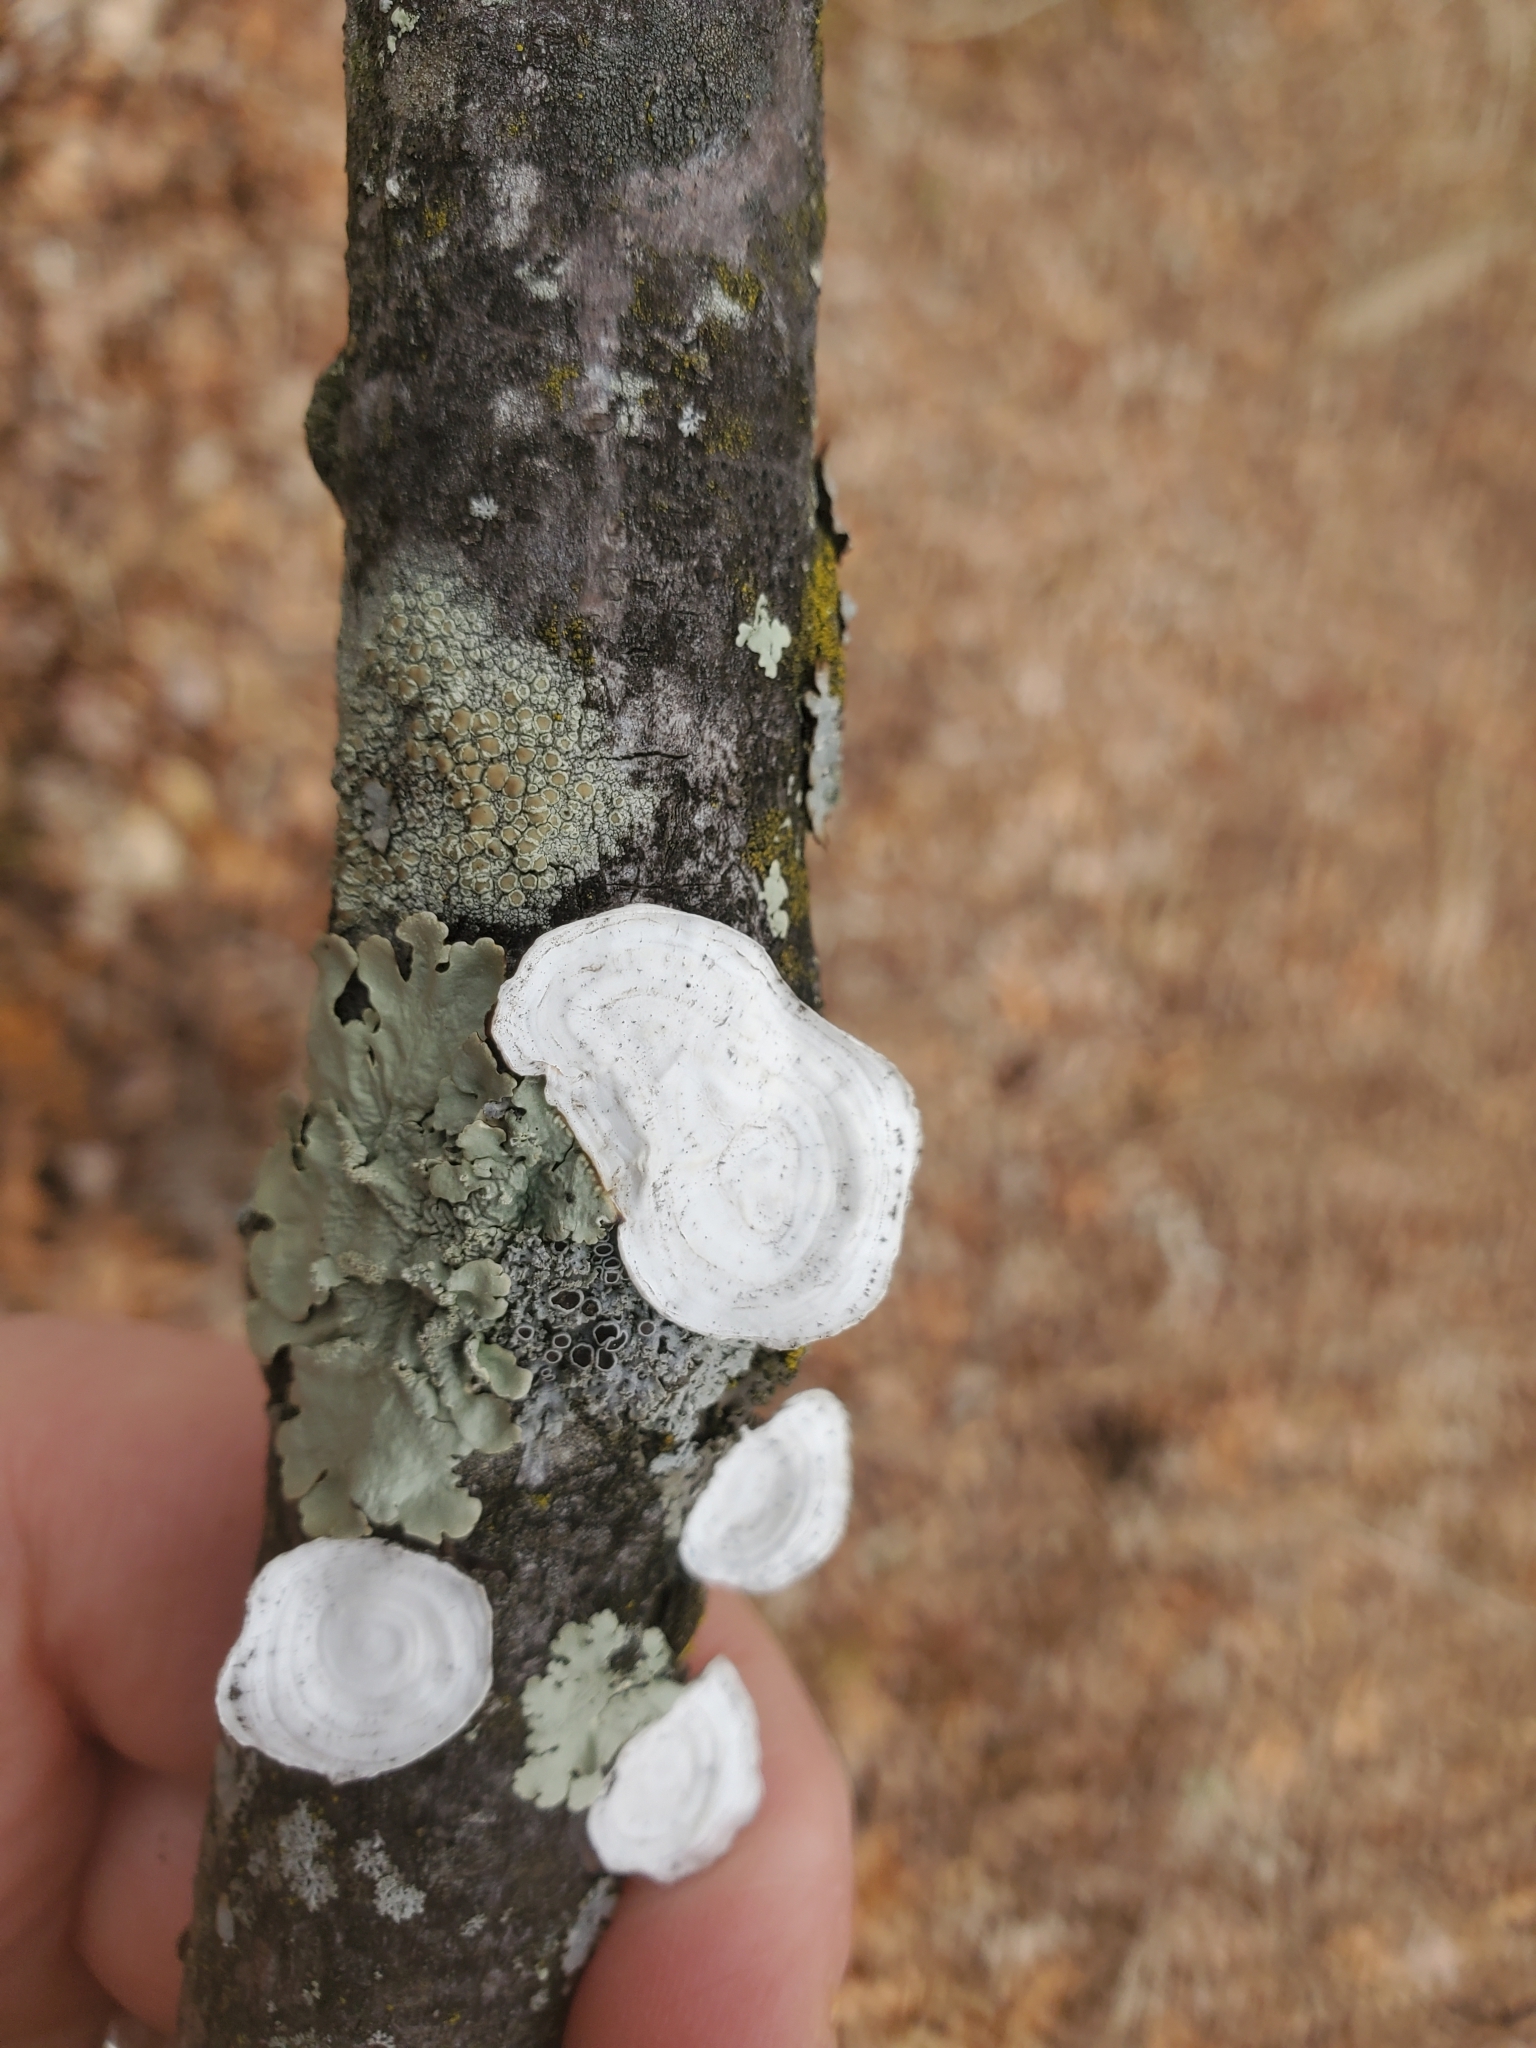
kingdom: Fungi
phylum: Basidiomycota
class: Agaricomycetes
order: Polyporales
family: Polyporaceae
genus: Poronidulus
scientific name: Poronidulus conchifer
